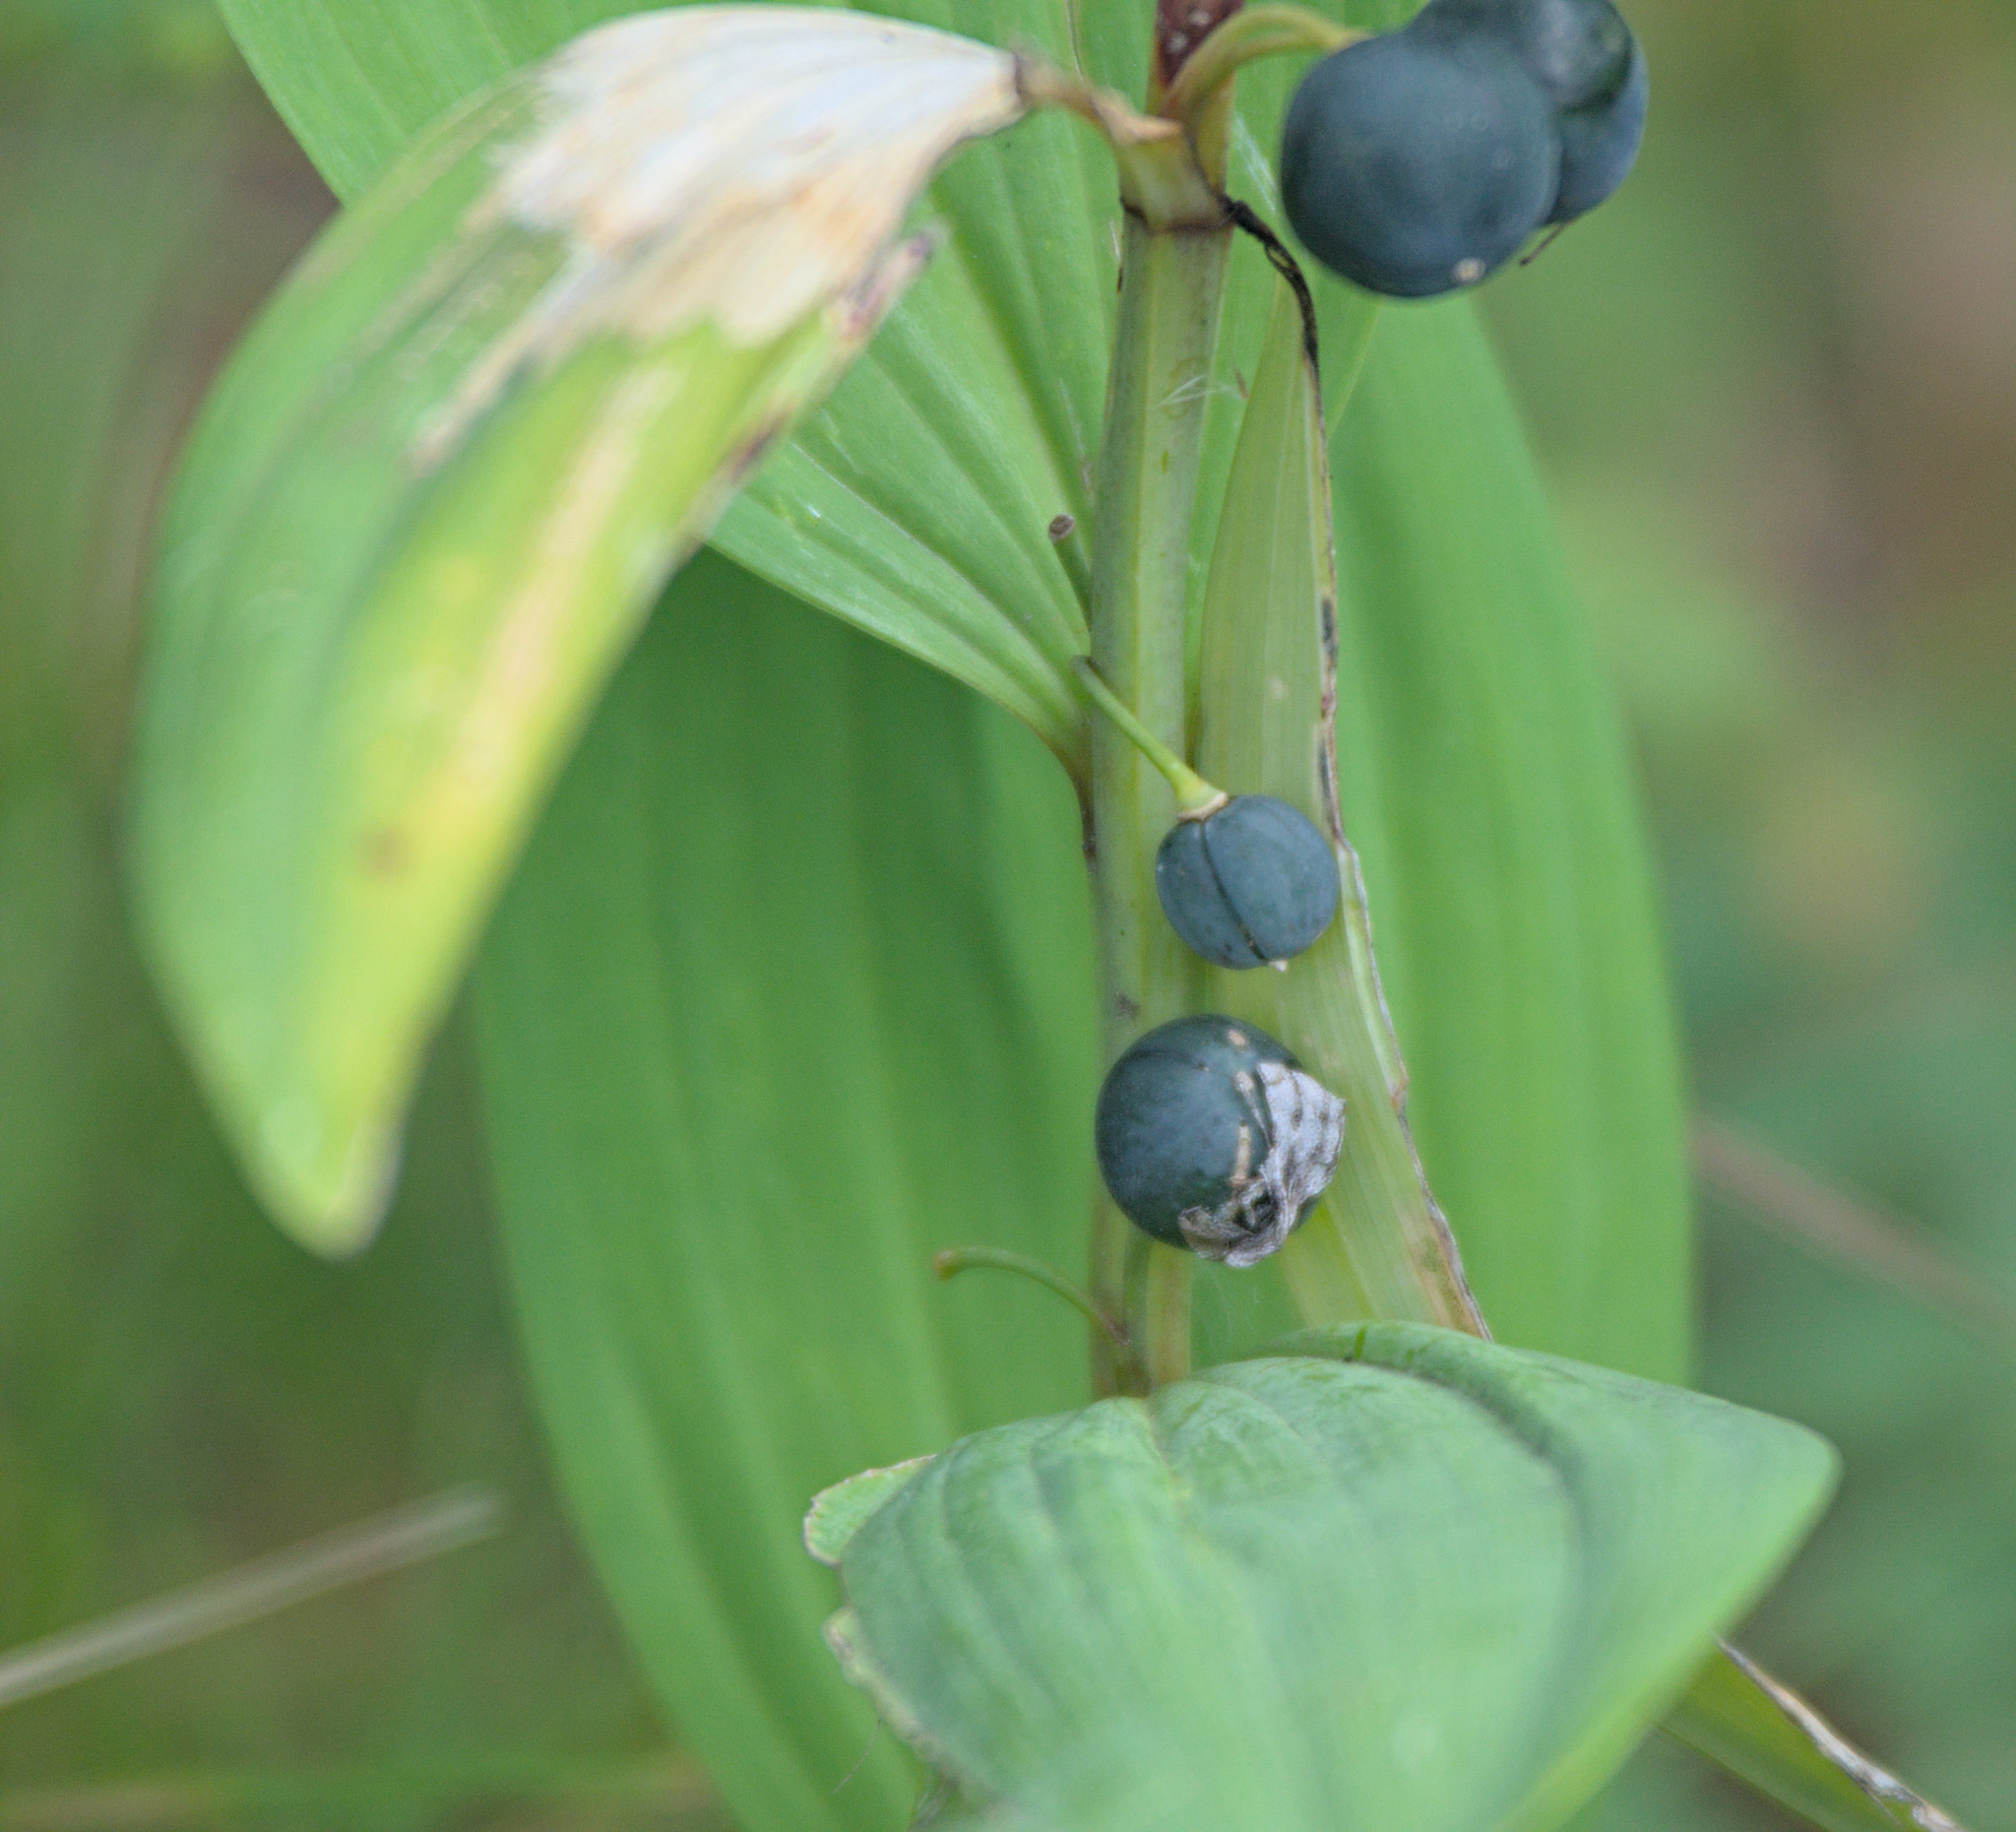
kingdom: Plantae
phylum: Tracheophyta
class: Liliopsida
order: Asparagales
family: Asparagaceae
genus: Polygonatum
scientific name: Polygonatum odoratum
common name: Angular solomon's-seal
